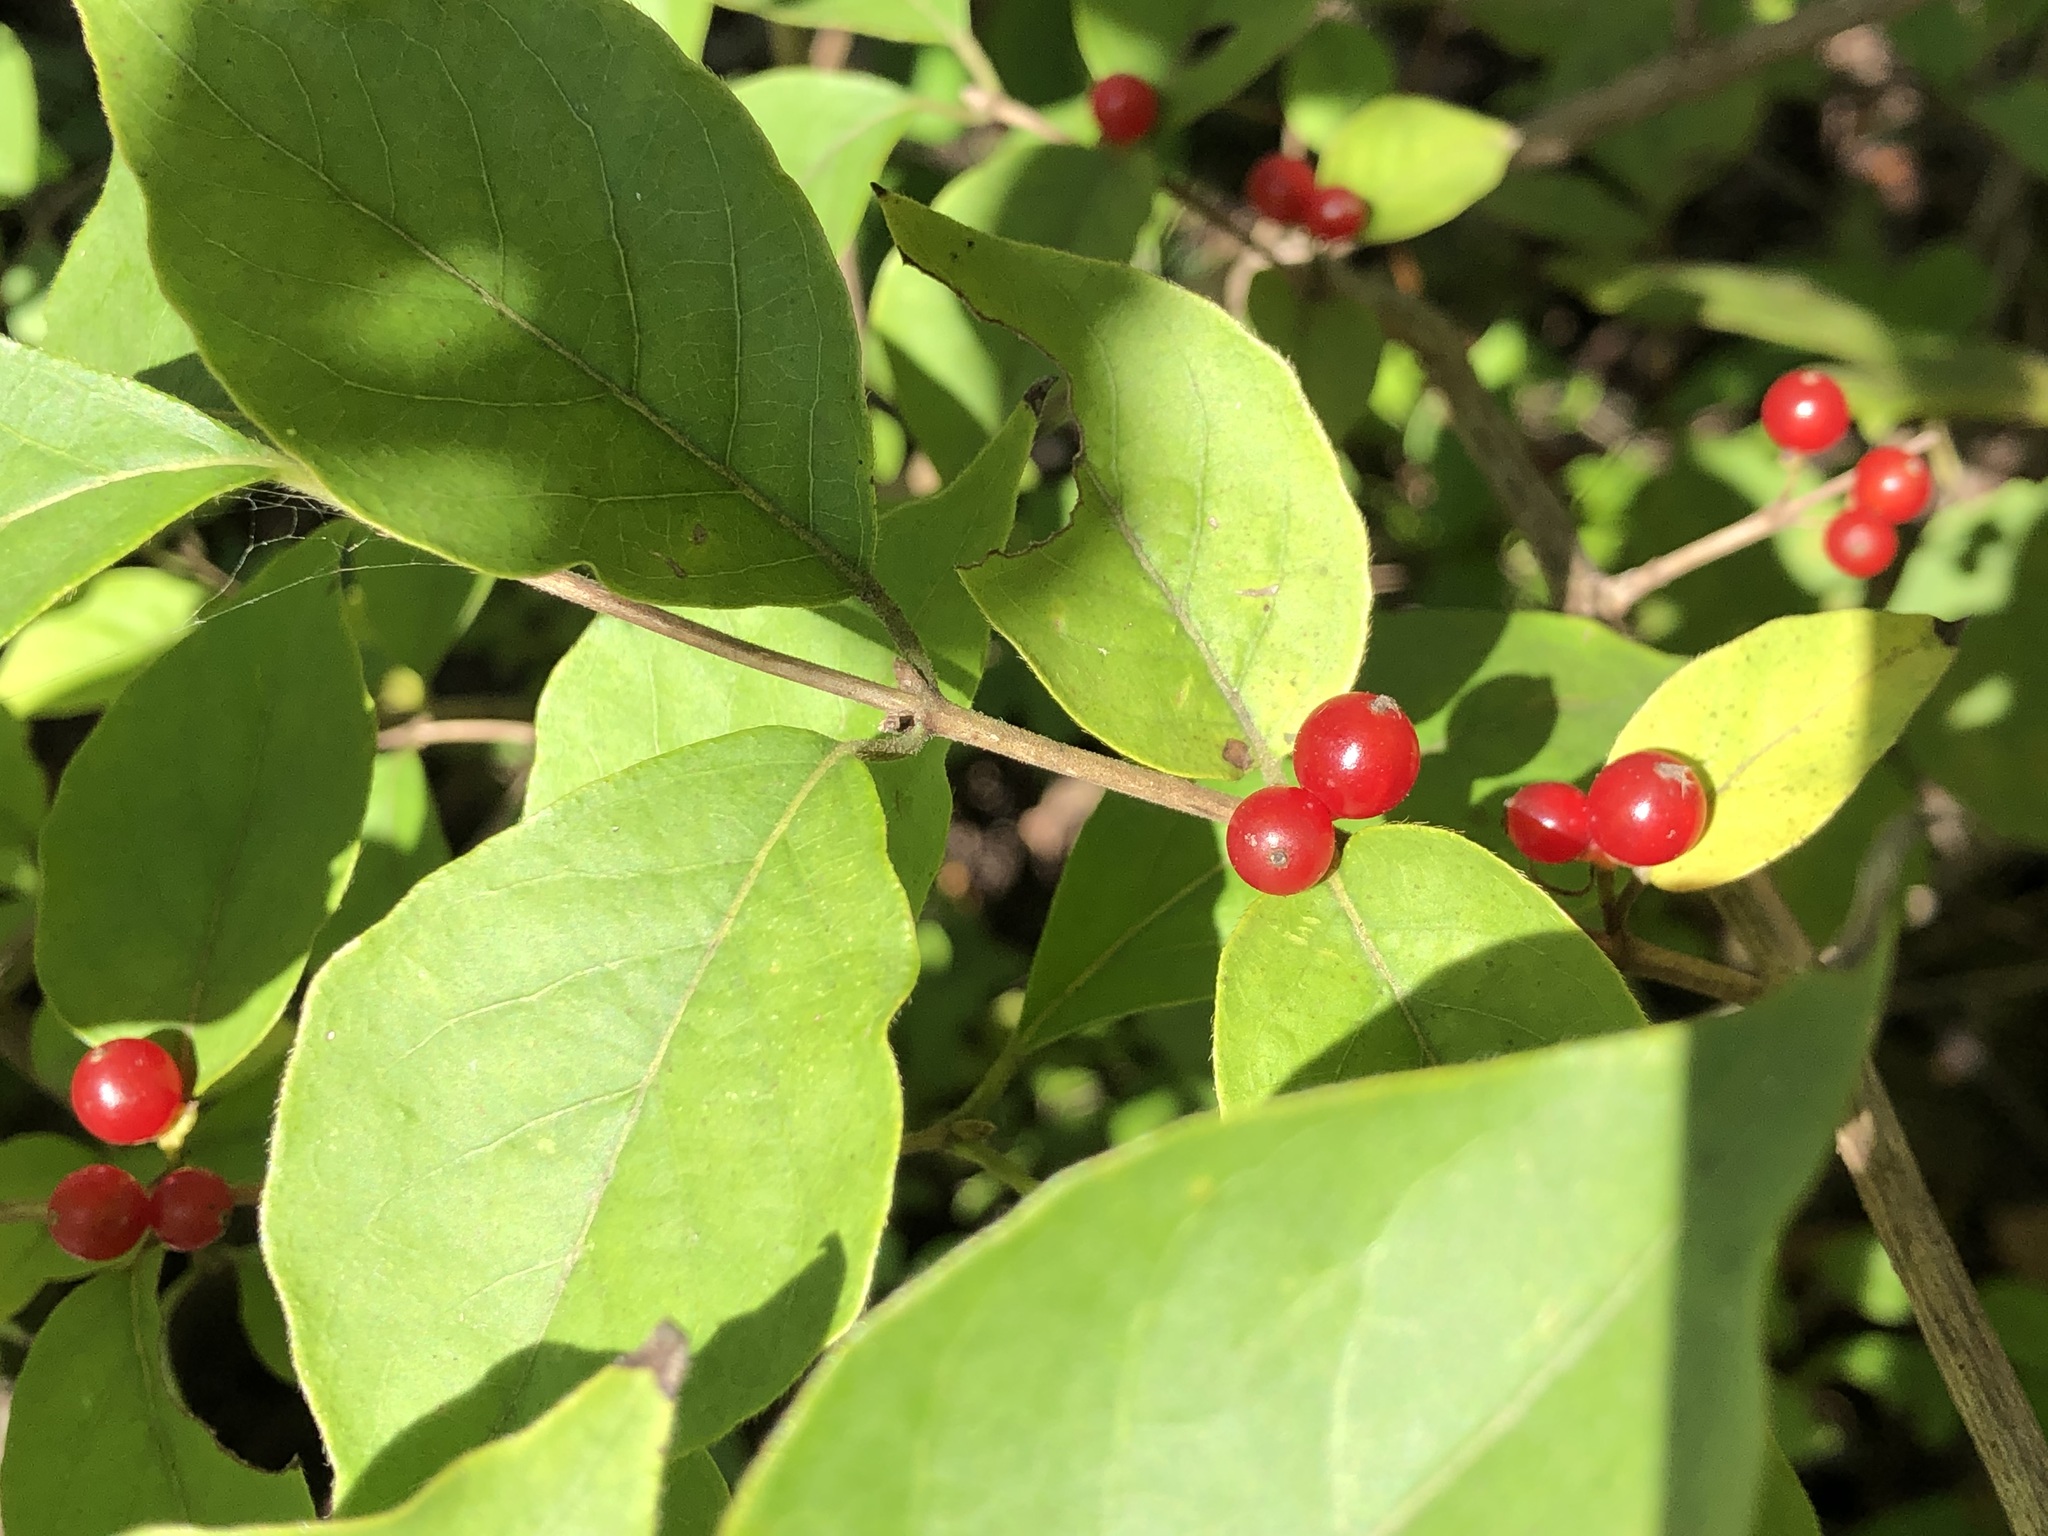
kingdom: Plantae
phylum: Tracheophyta
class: Magnoliopsida
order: Dipsacales
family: Caprifoliaceae
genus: Lonicera
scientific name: Lonicera maackii
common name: Amur honeysuckle
